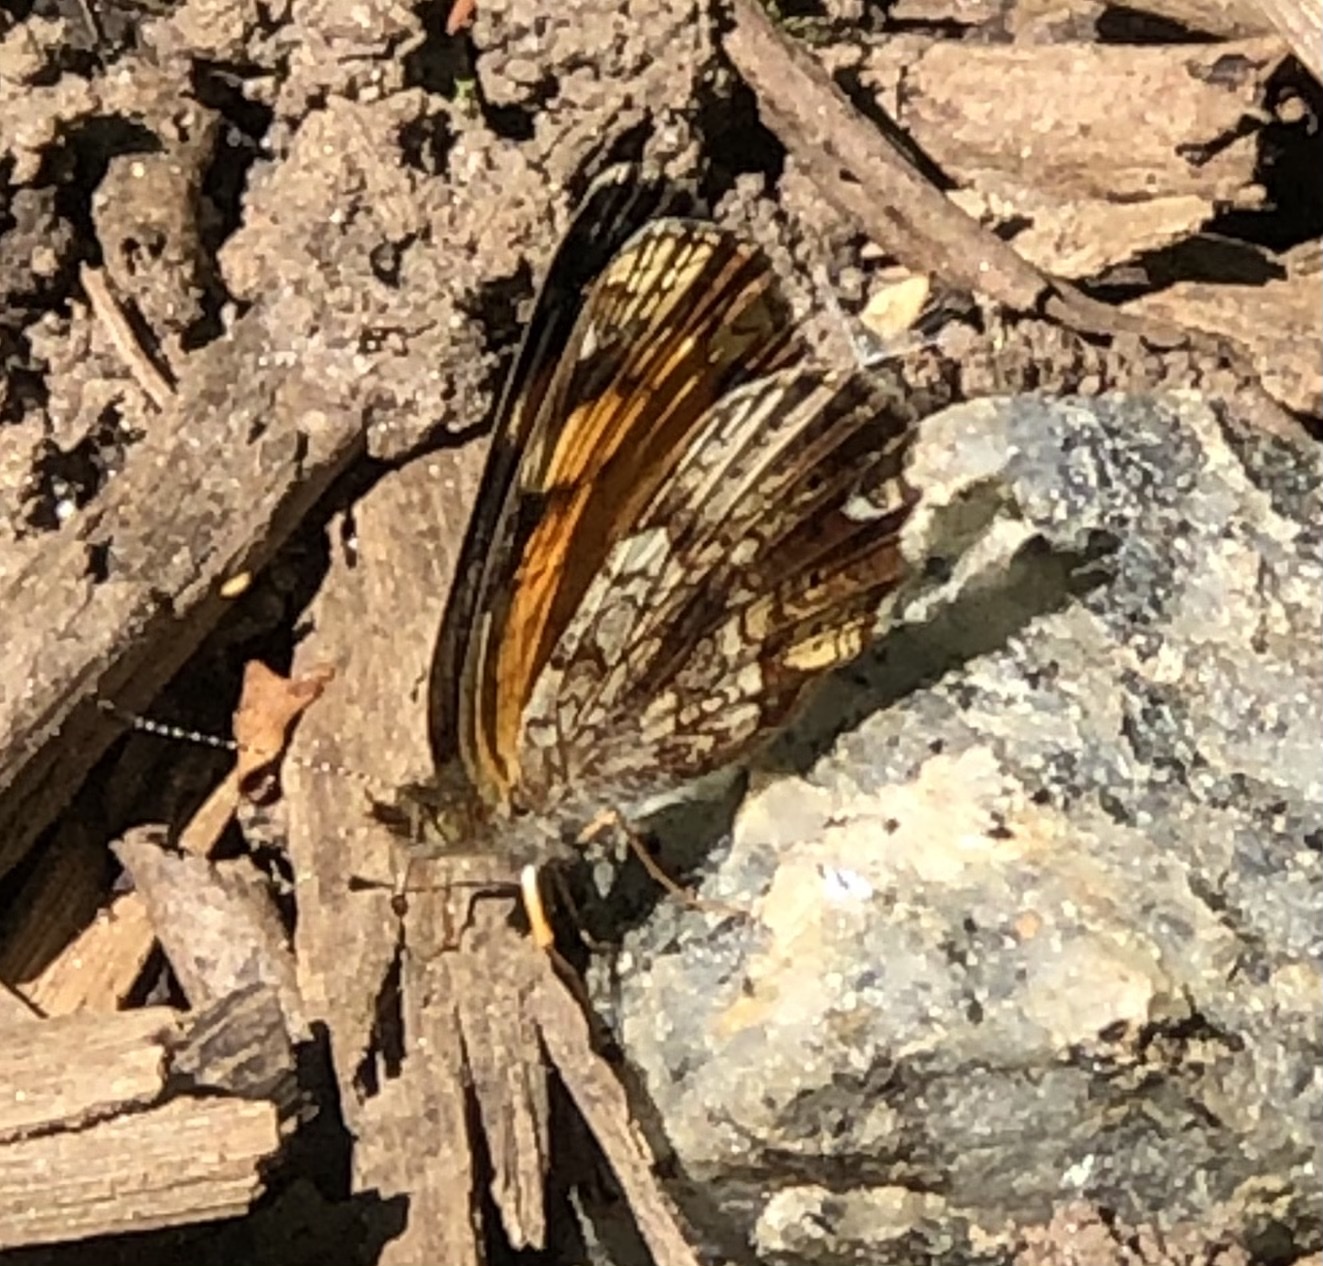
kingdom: Animalia
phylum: Arthropoda
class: Insecta
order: Lepidoptera
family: Nymphalidae
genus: Phyciodes
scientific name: Phyciodes tharos
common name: Pearl crescent
